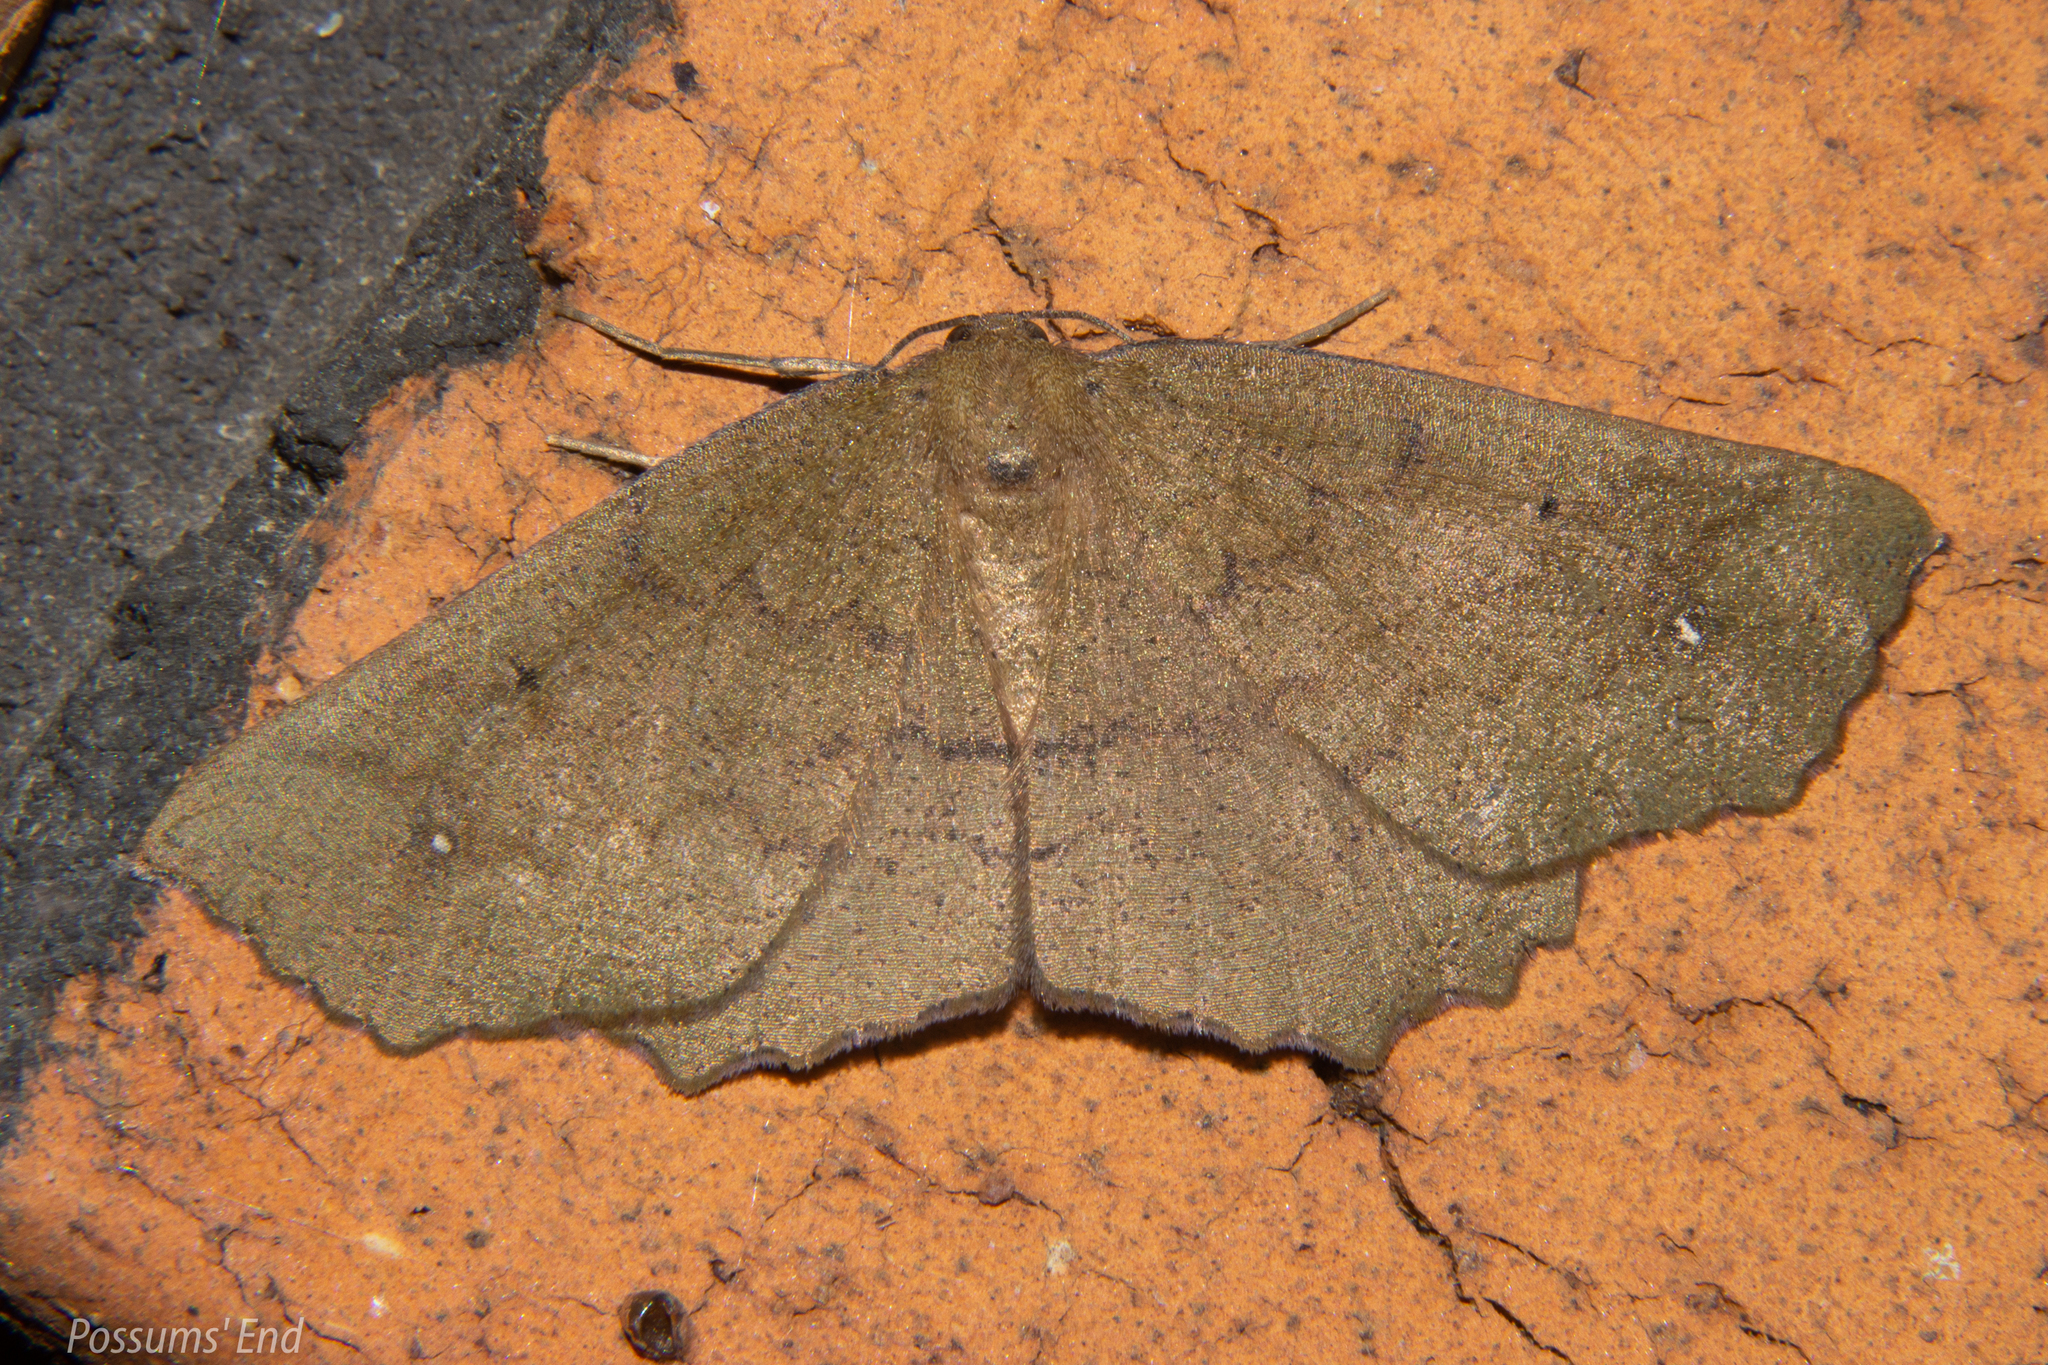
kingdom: Animalia
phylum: Arthropoda
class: Insecta
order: Lepidoptera
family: Geometridae
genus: Xyridacma
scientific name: Xyridacma ustaria
